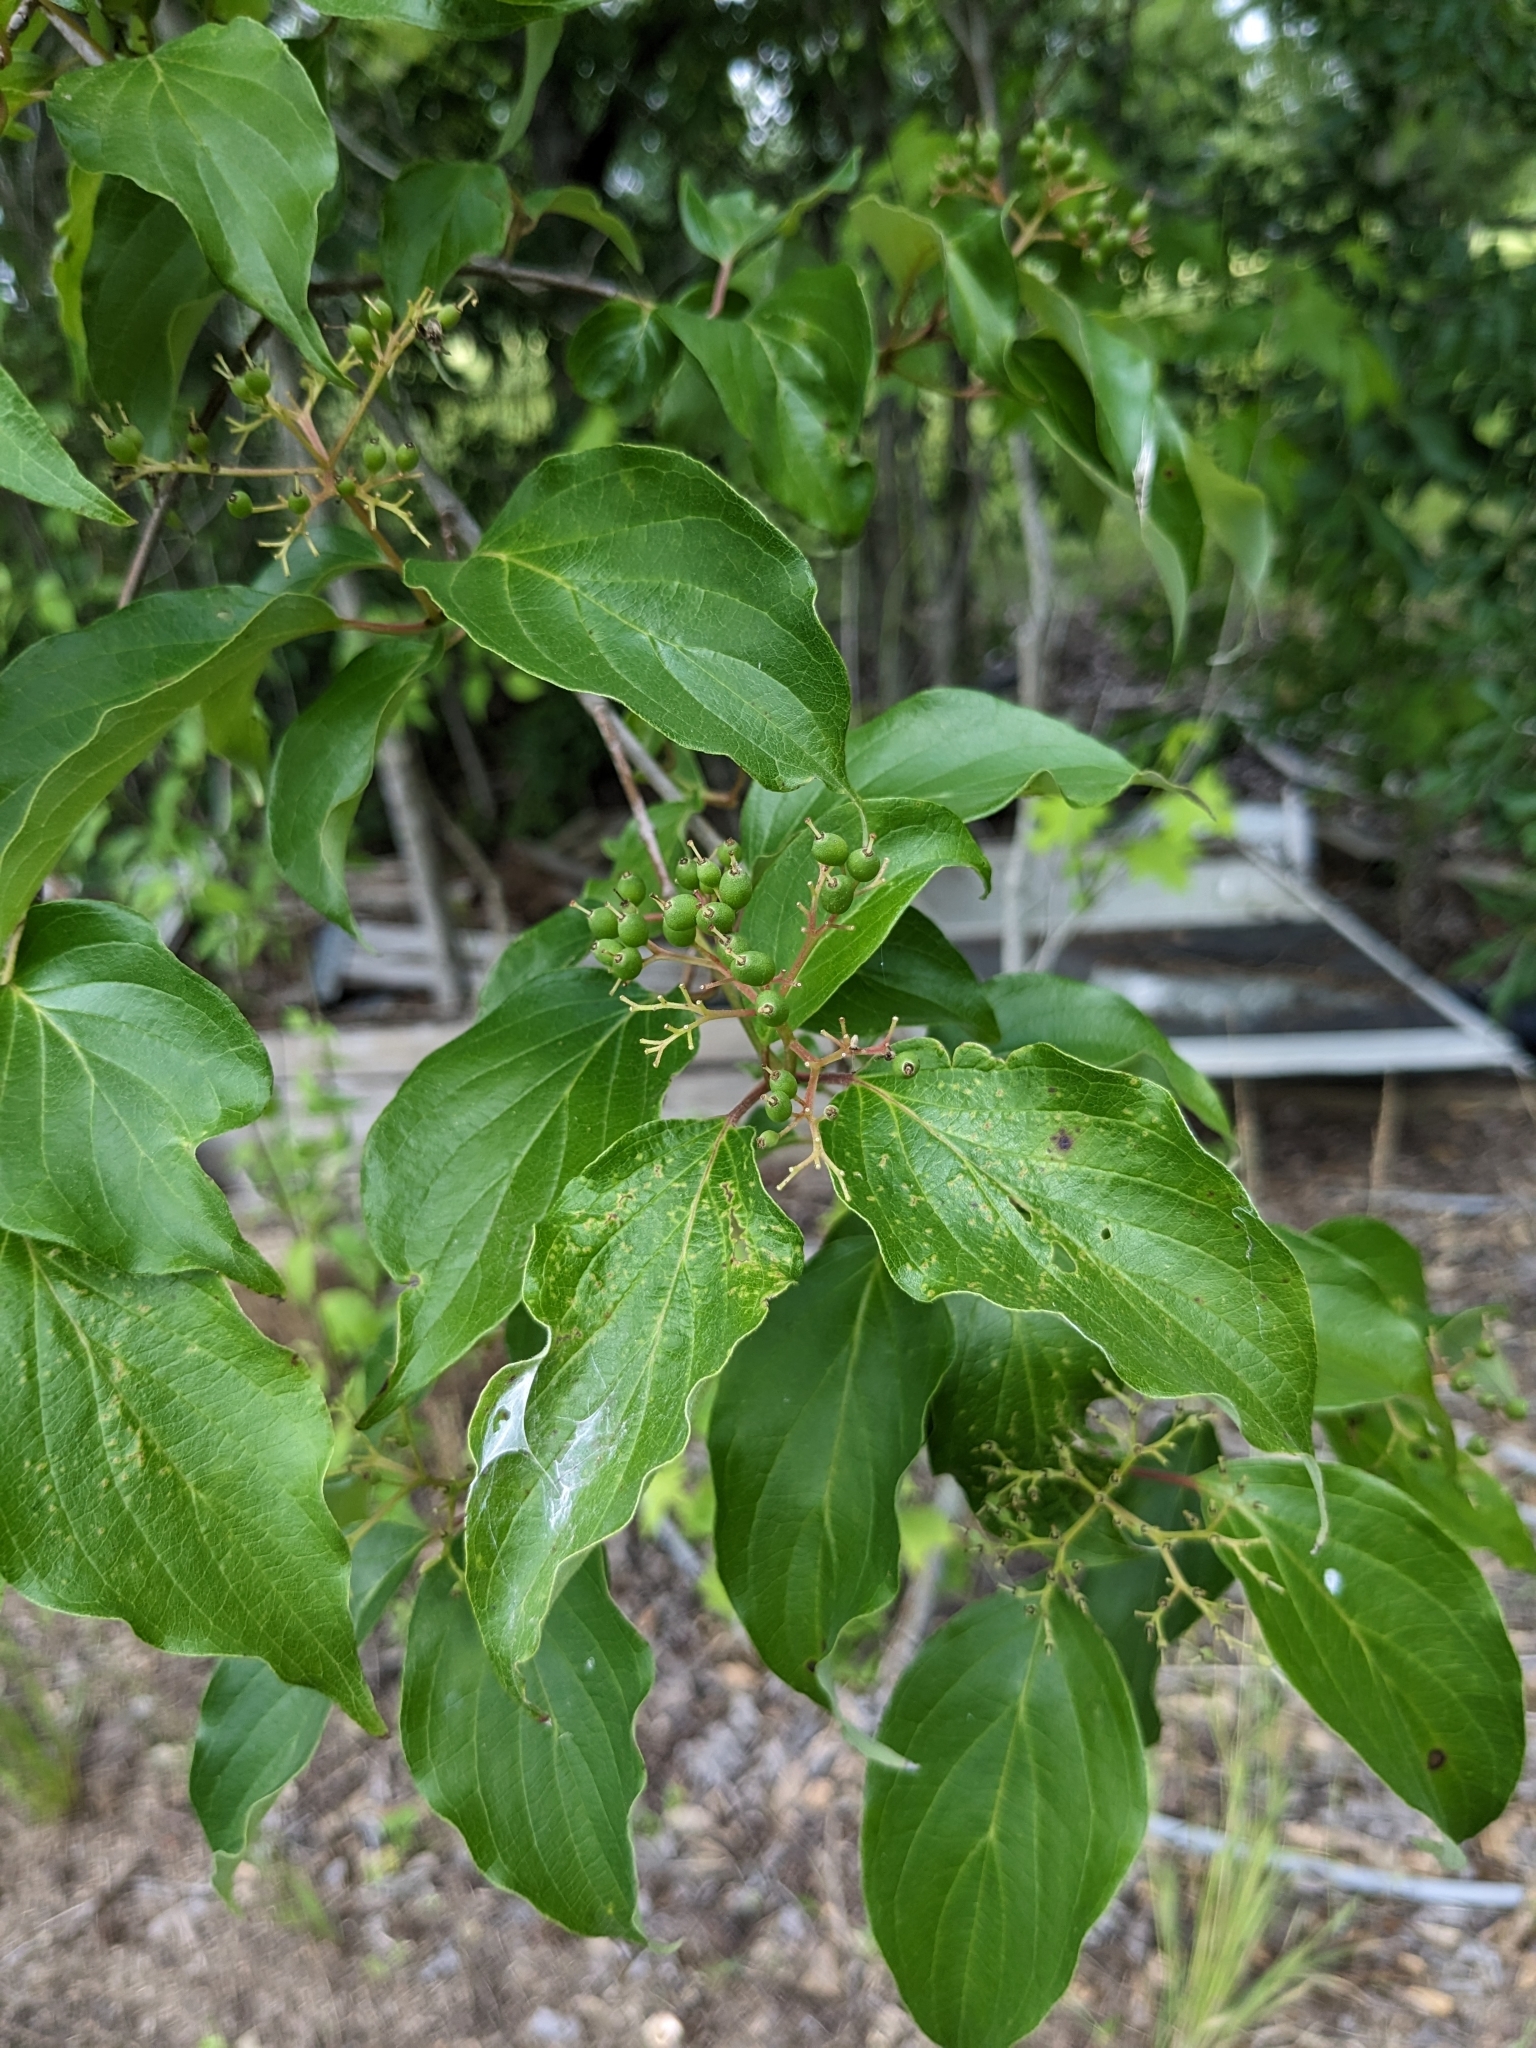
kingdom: Plantae
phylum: Tracheophyta
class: Magnoliopsida
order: Cornales
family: Cornaceae
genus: Cornus
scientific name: Cornus drummondii
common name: Rough-leaf dogwood
